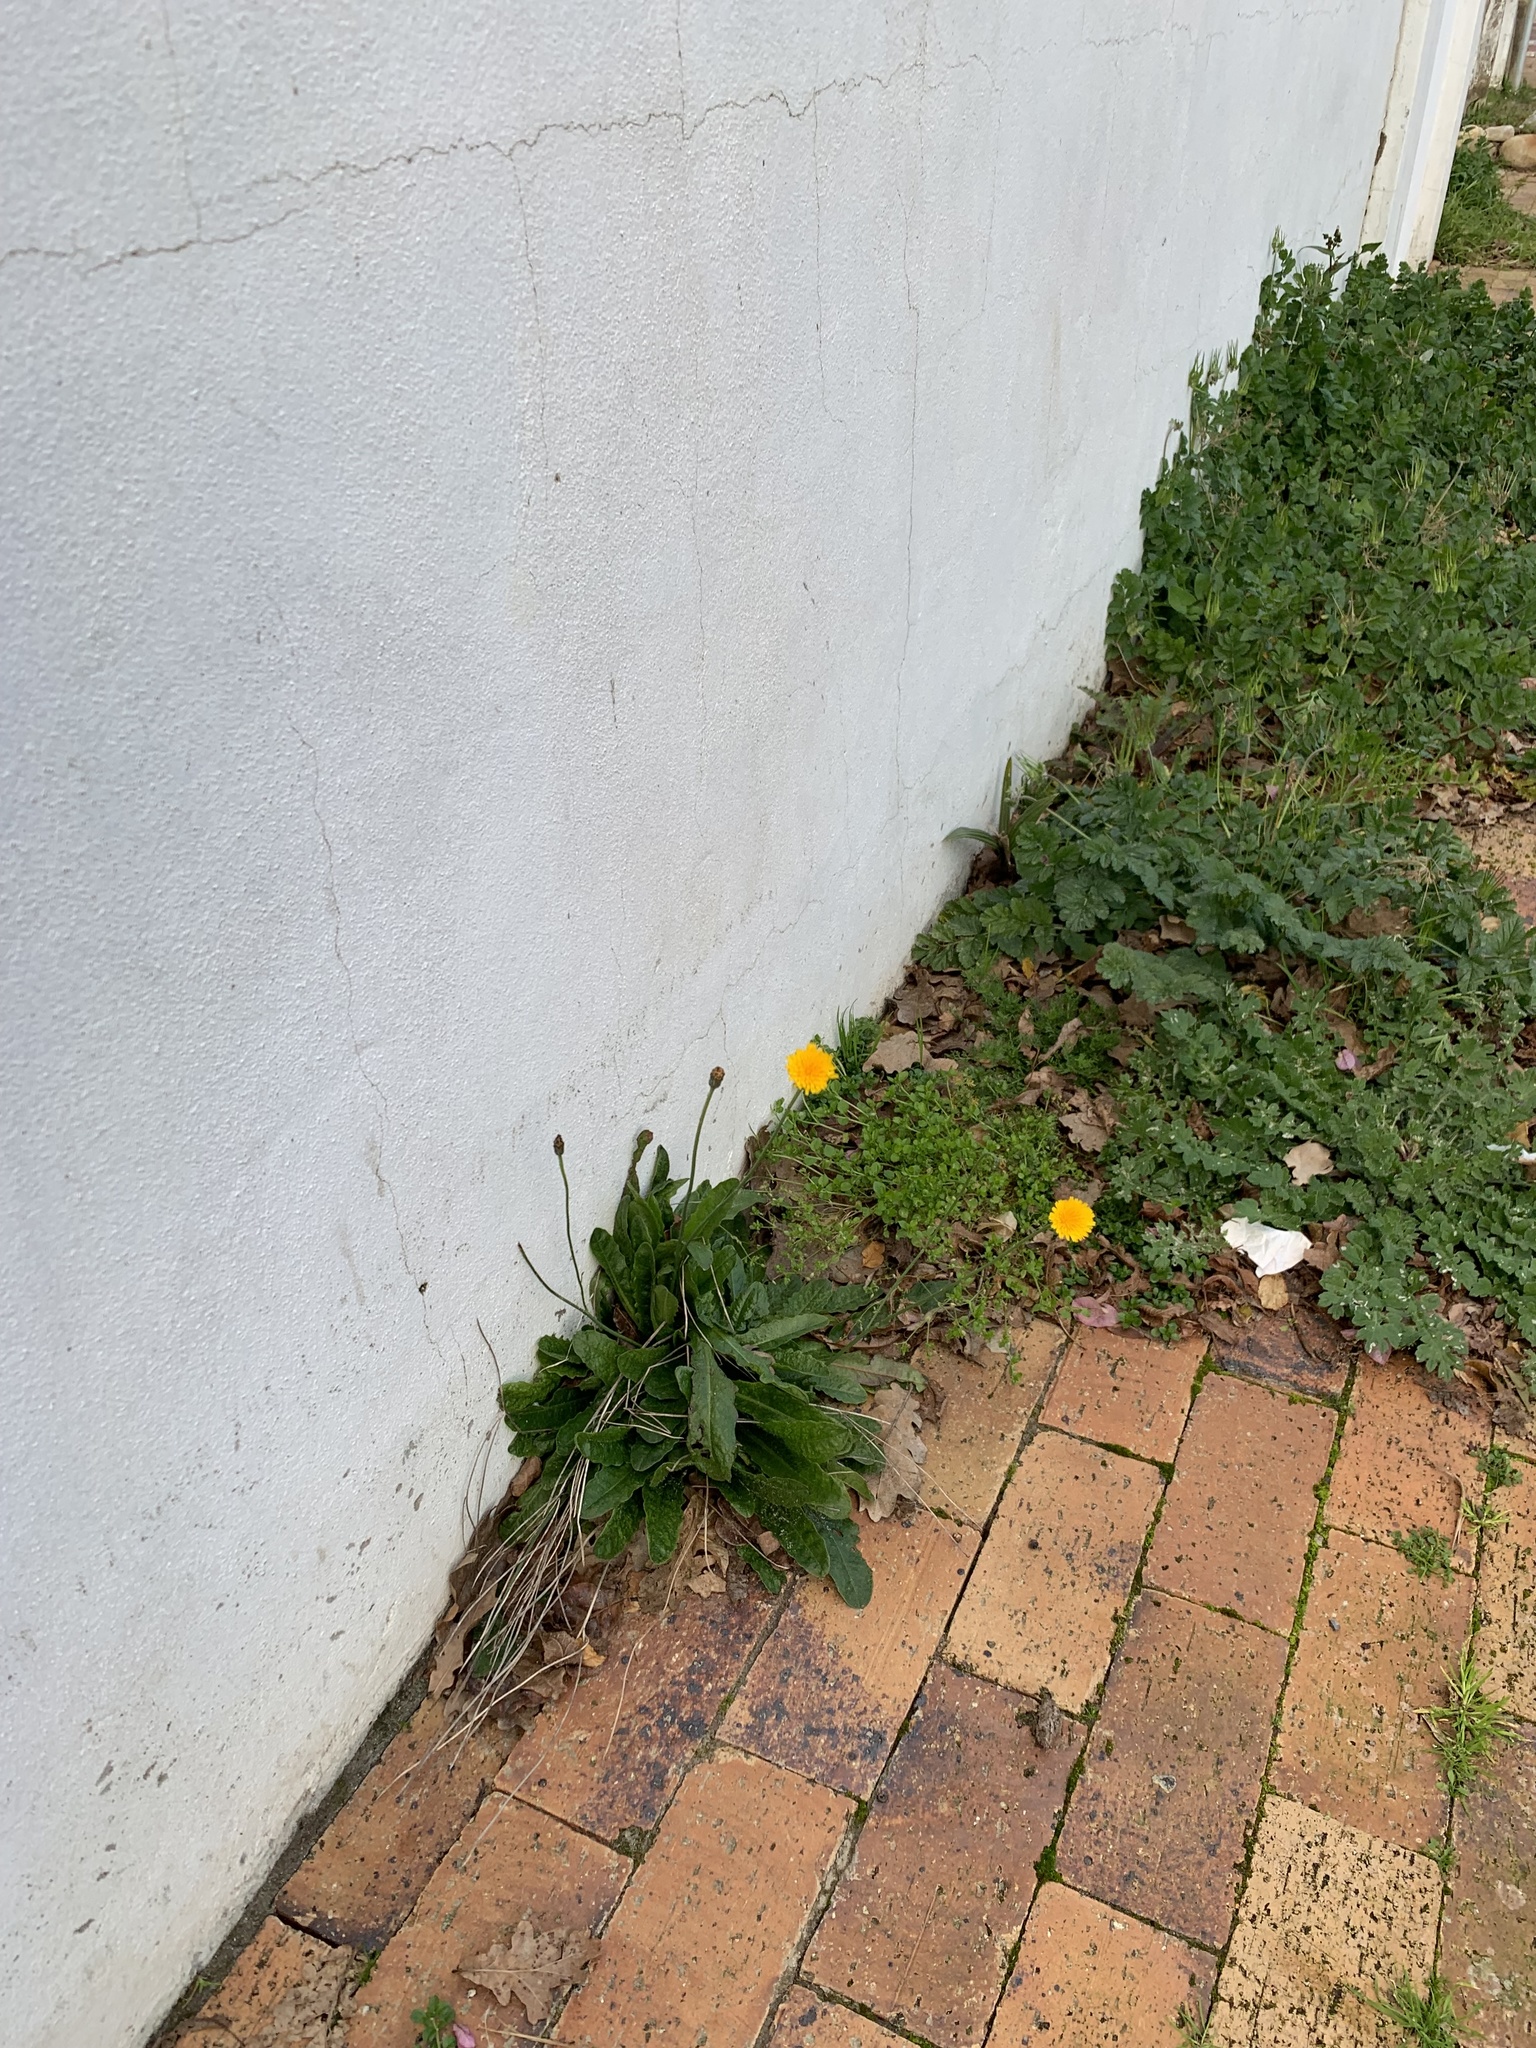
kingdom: Plantae
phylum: Tracheophyta
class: Magnoliopsida
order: Asterales
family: Asteraceae
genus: Hypochaeris
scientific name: Hypochaeris radicata
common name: Flatweed
